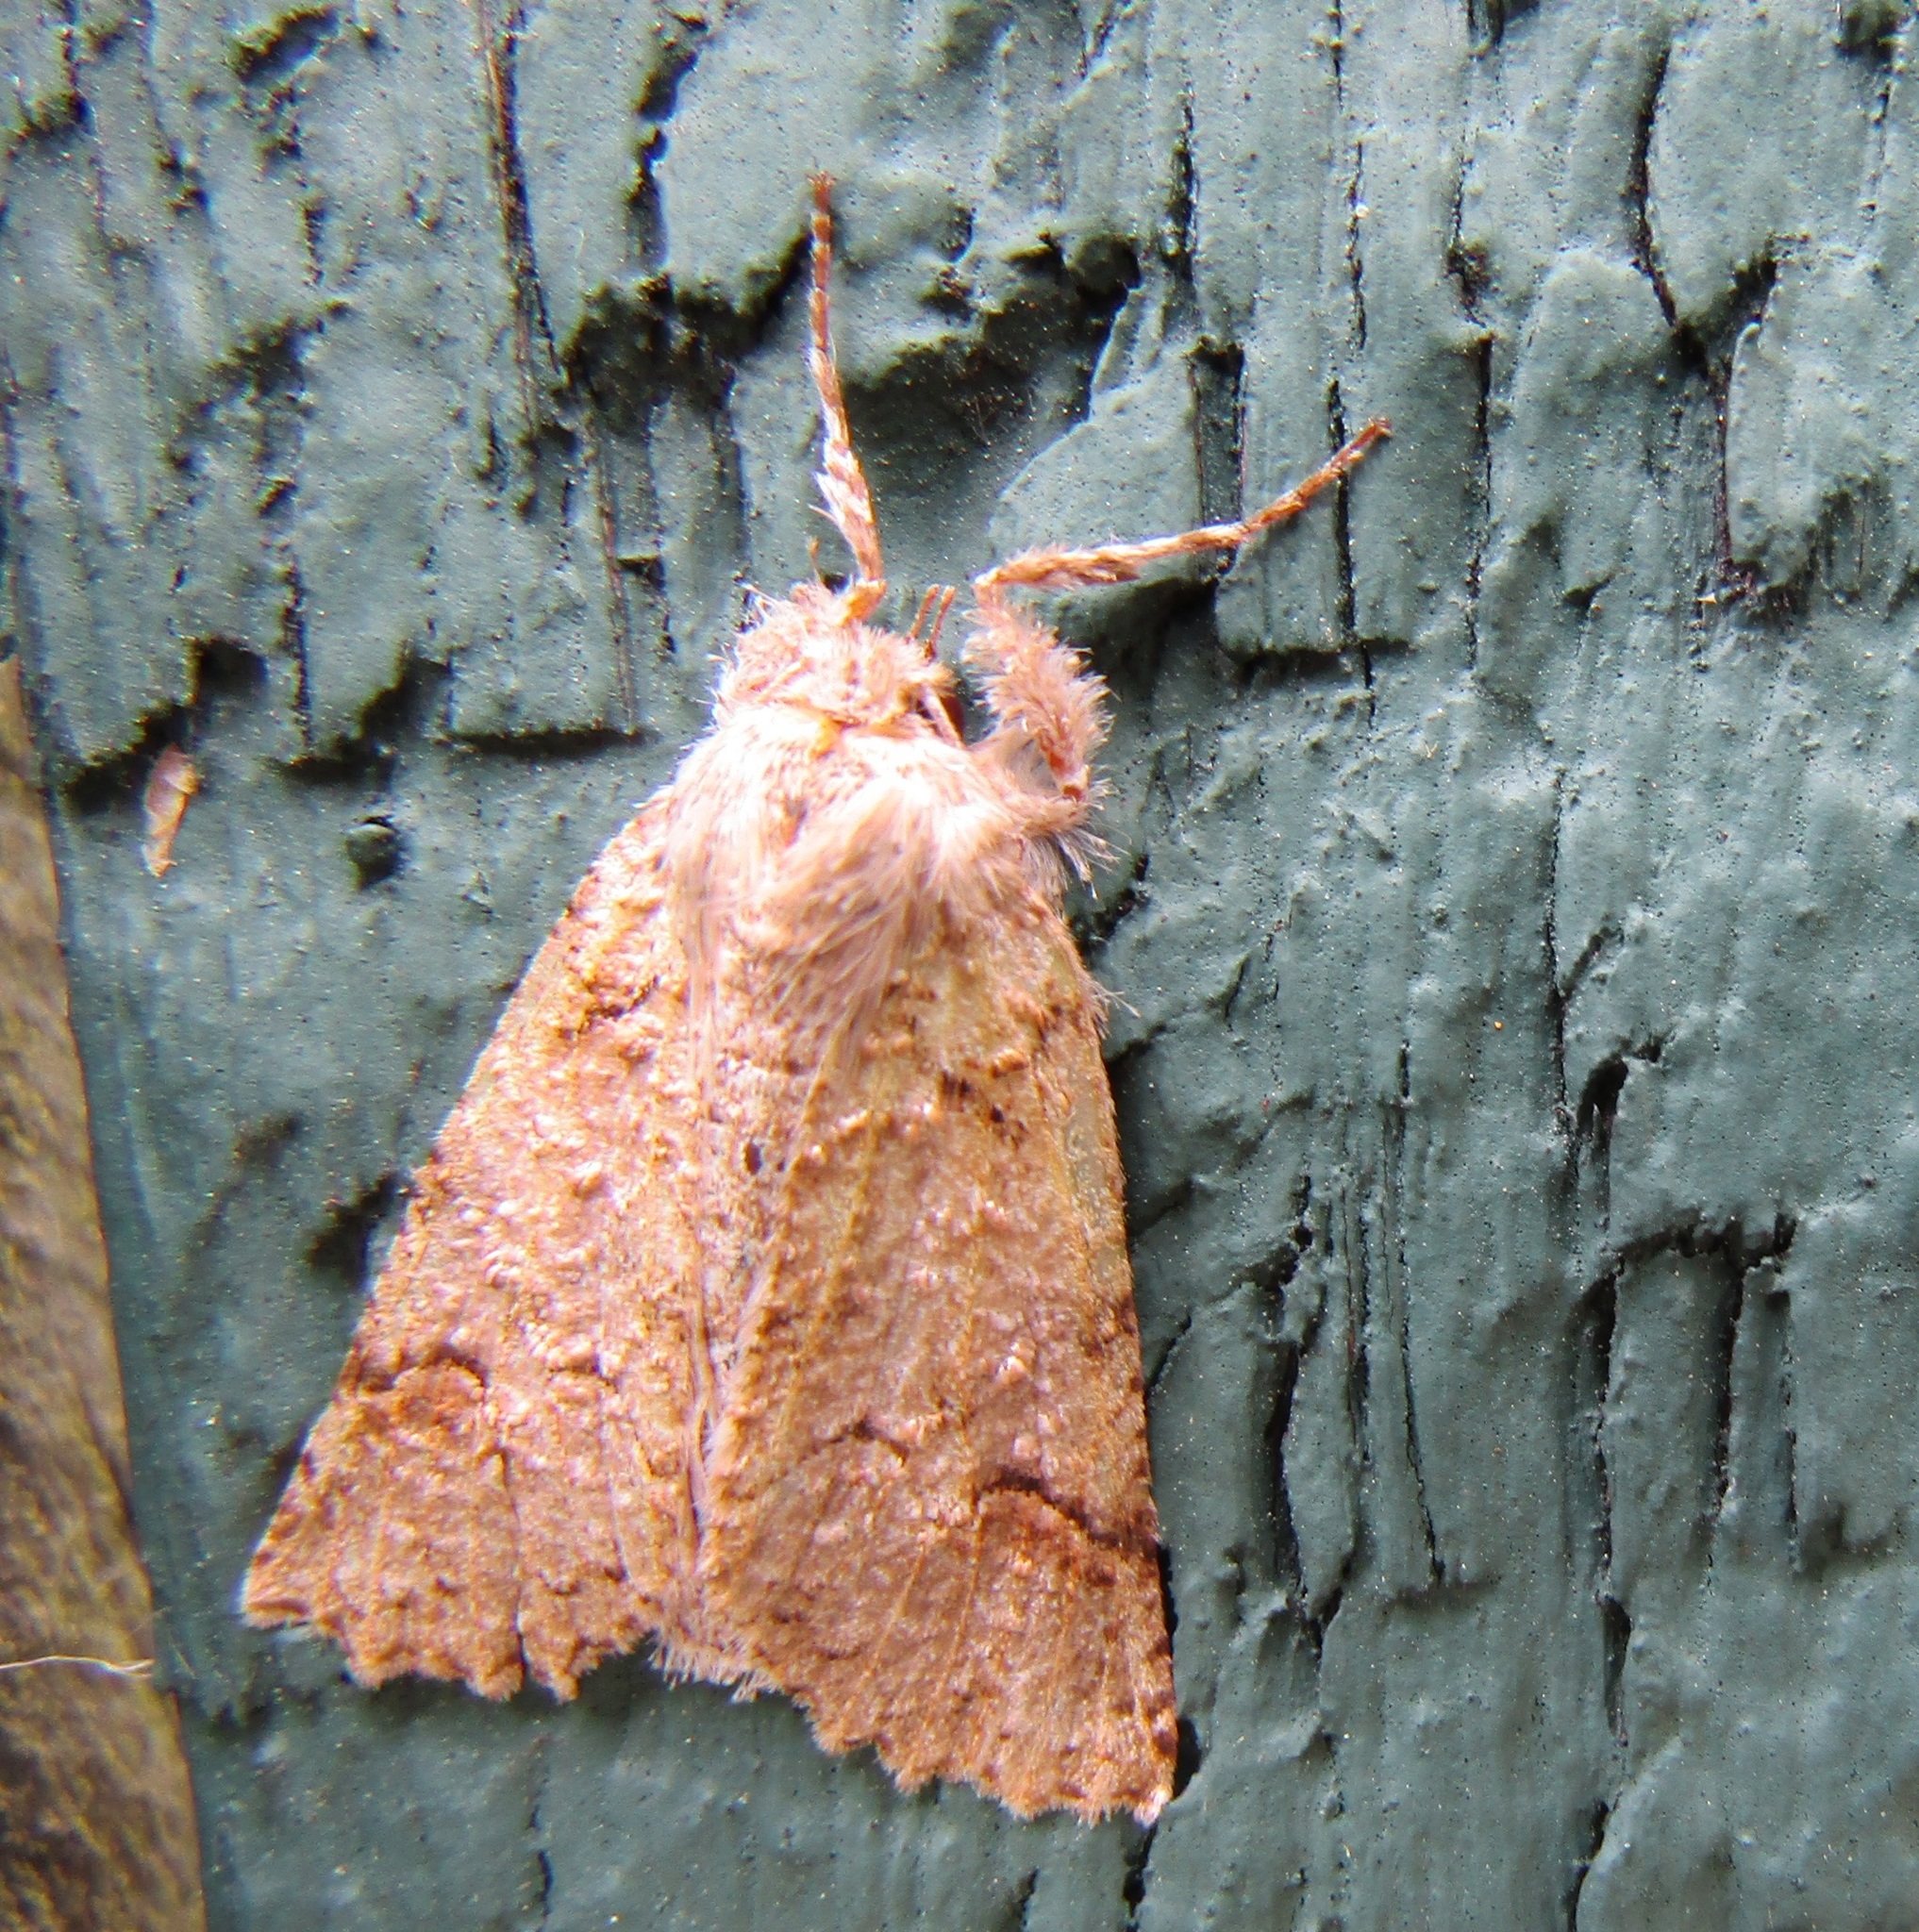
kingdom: Animalia
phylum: Arthropoda
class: Insecta
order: Lepidoptera
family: Geometridae
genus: Declana
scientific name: Declana floccosa
